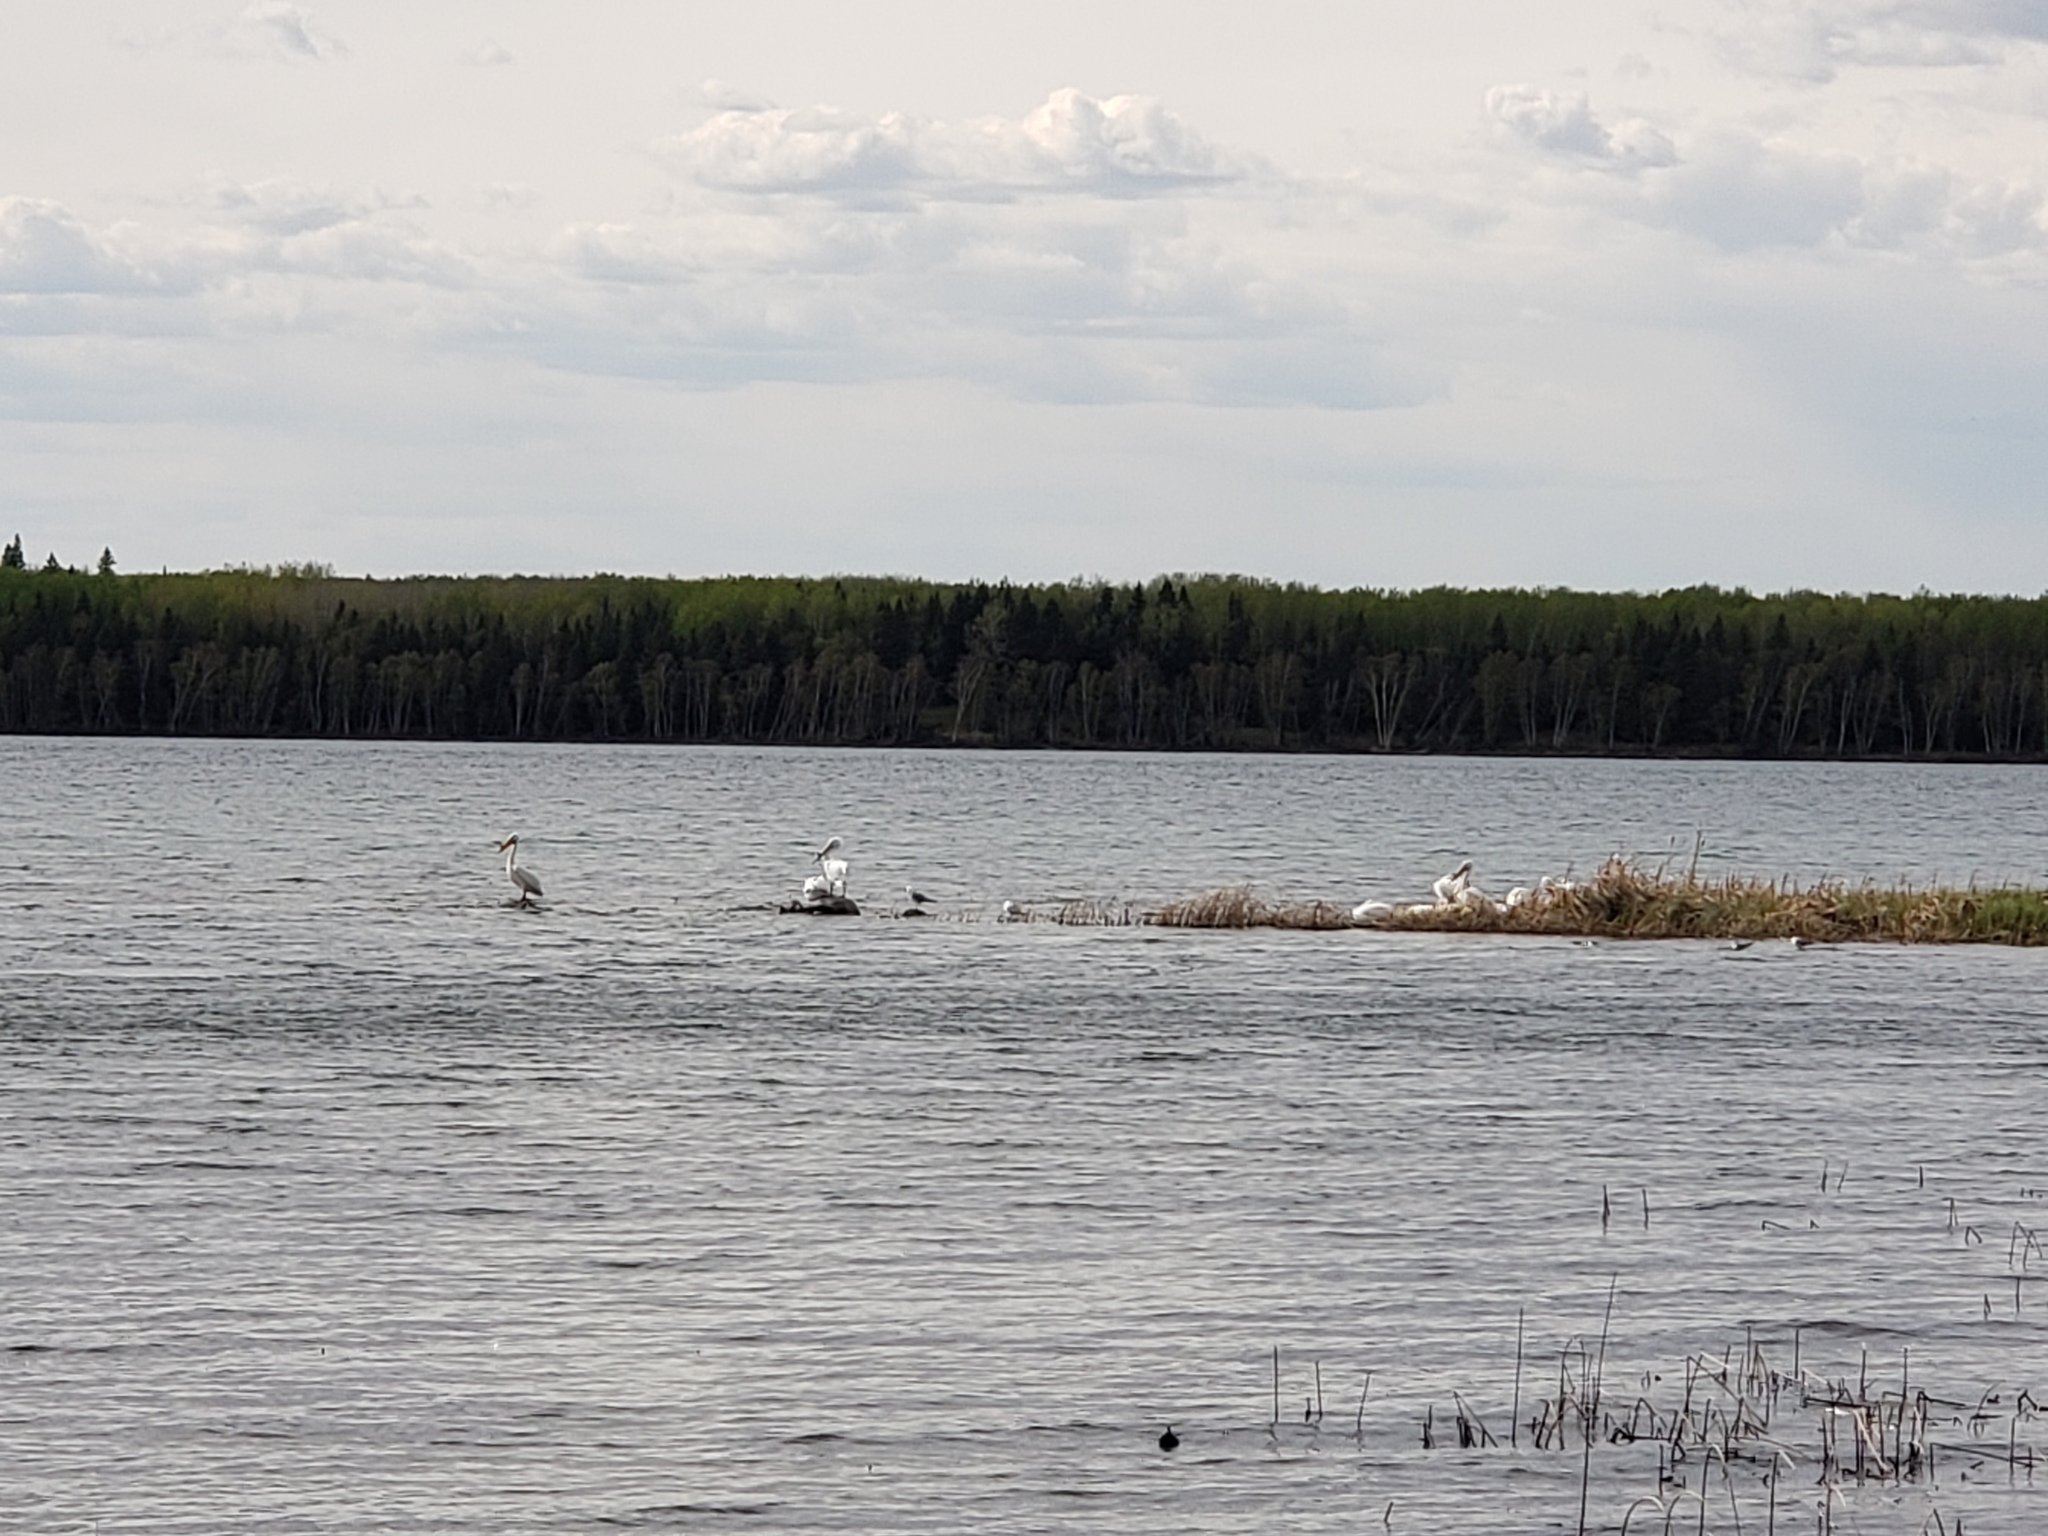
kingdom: Animalia
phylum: Chordata
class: Aves
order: Pelecaniformes
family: Pelecanidae
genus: Pelecanus
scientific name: Pelecanus erythrorhynchos
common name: American white pelican
